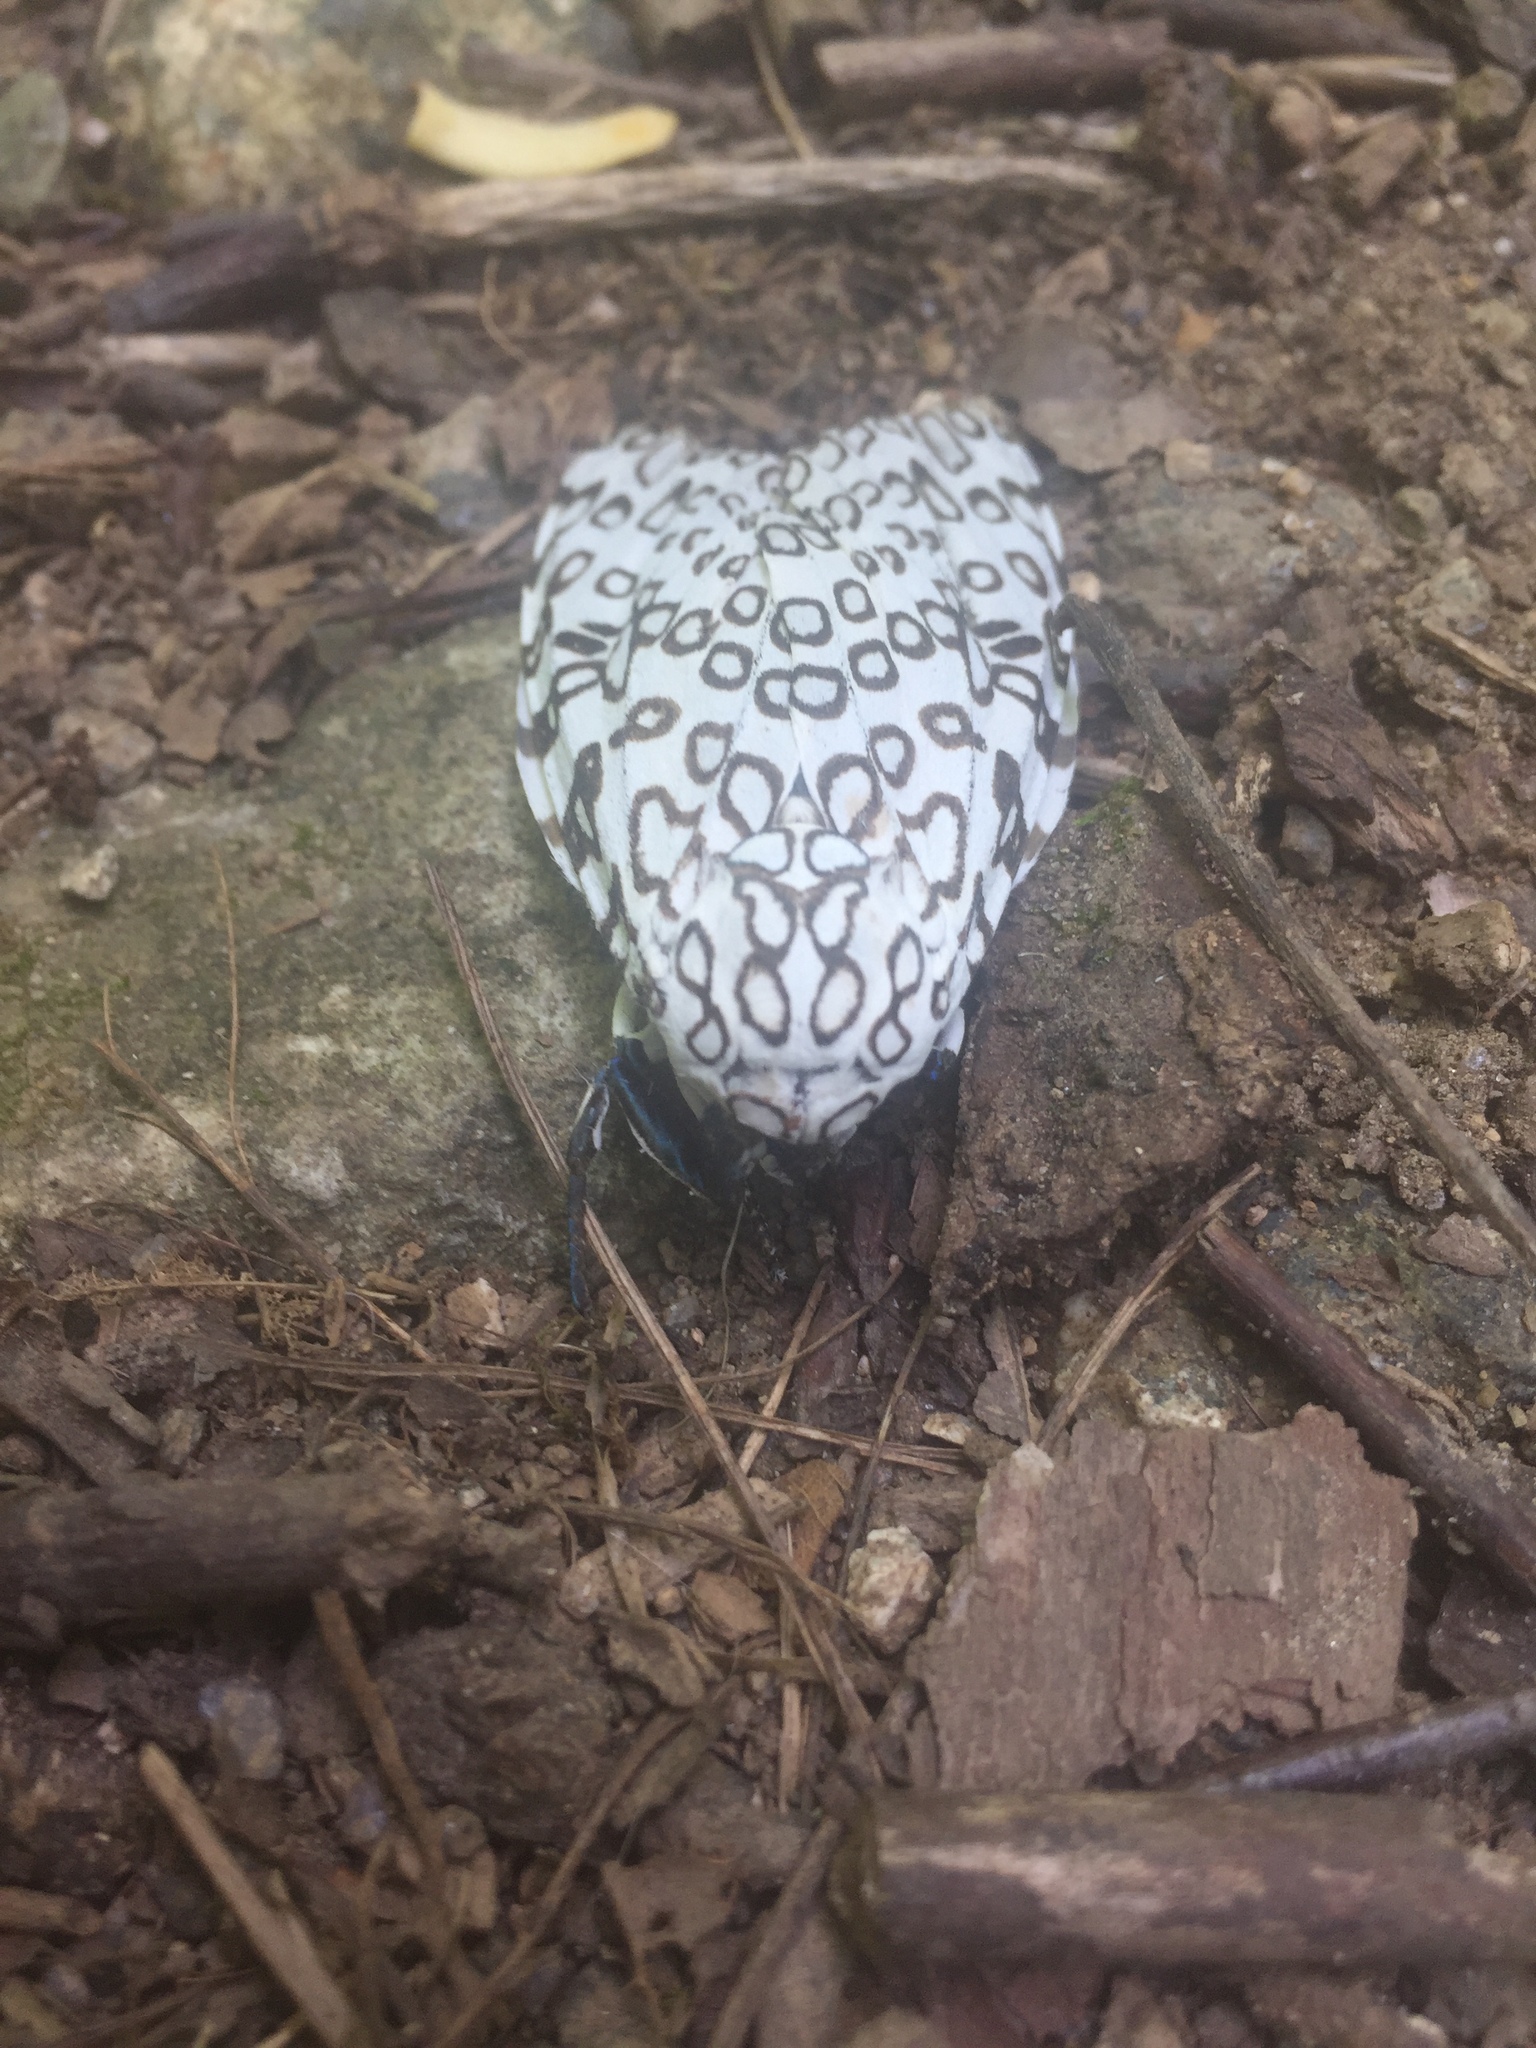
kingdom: Animalia
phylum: Arthropoda
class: Insecta
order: Lepidoptera
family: Erebidae
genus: Hypercompe
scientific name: Hypercompe scribonia
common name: Giant leopard moth
